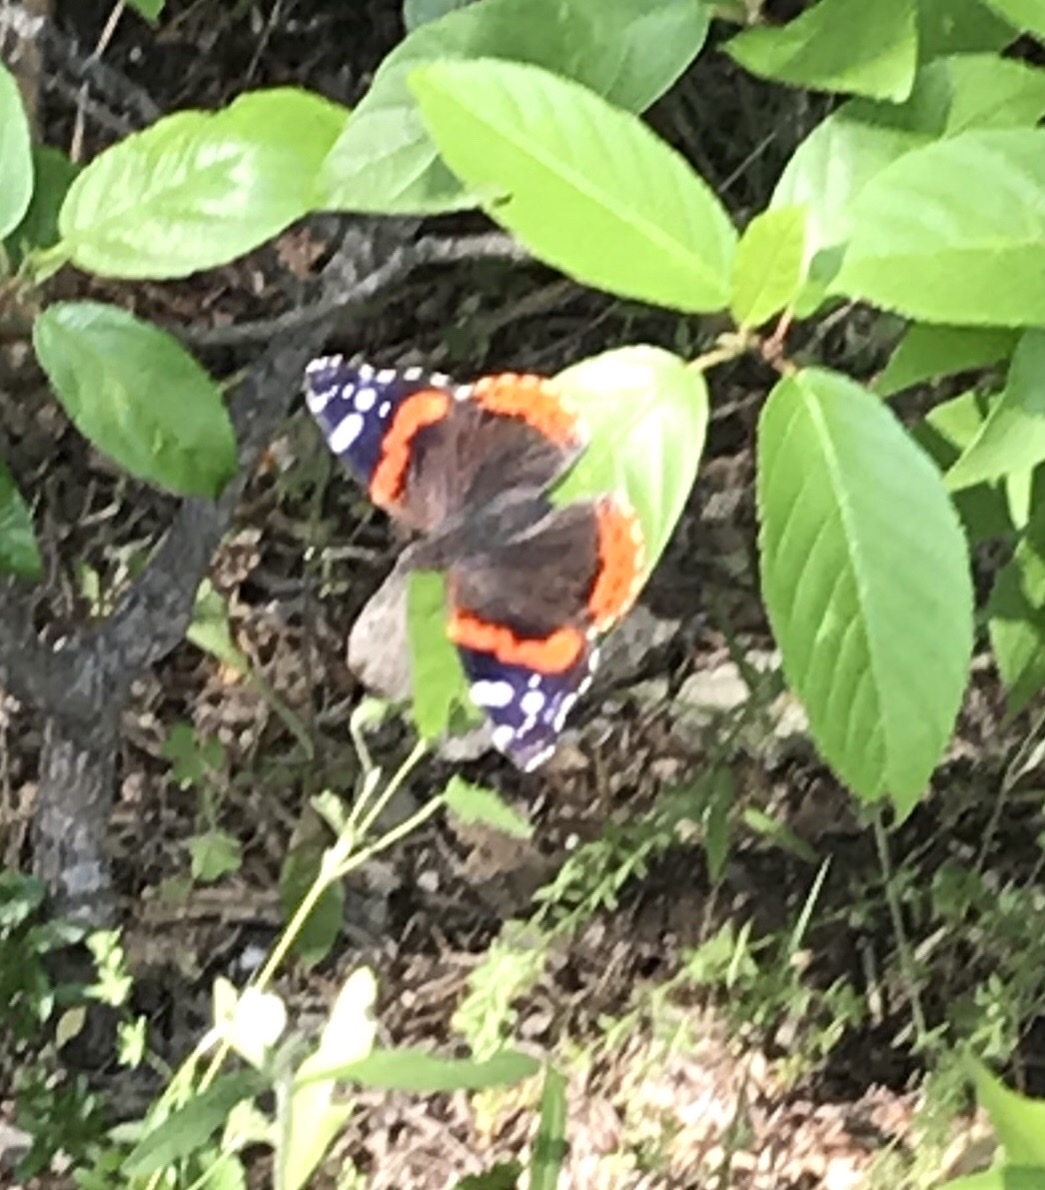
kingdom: Animalia
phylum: Arthropoda
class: Insecta
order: Lepidoptera
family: Nymphalidae
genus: Vanessa
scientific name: Vanessa atalanta
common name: Red admiral
